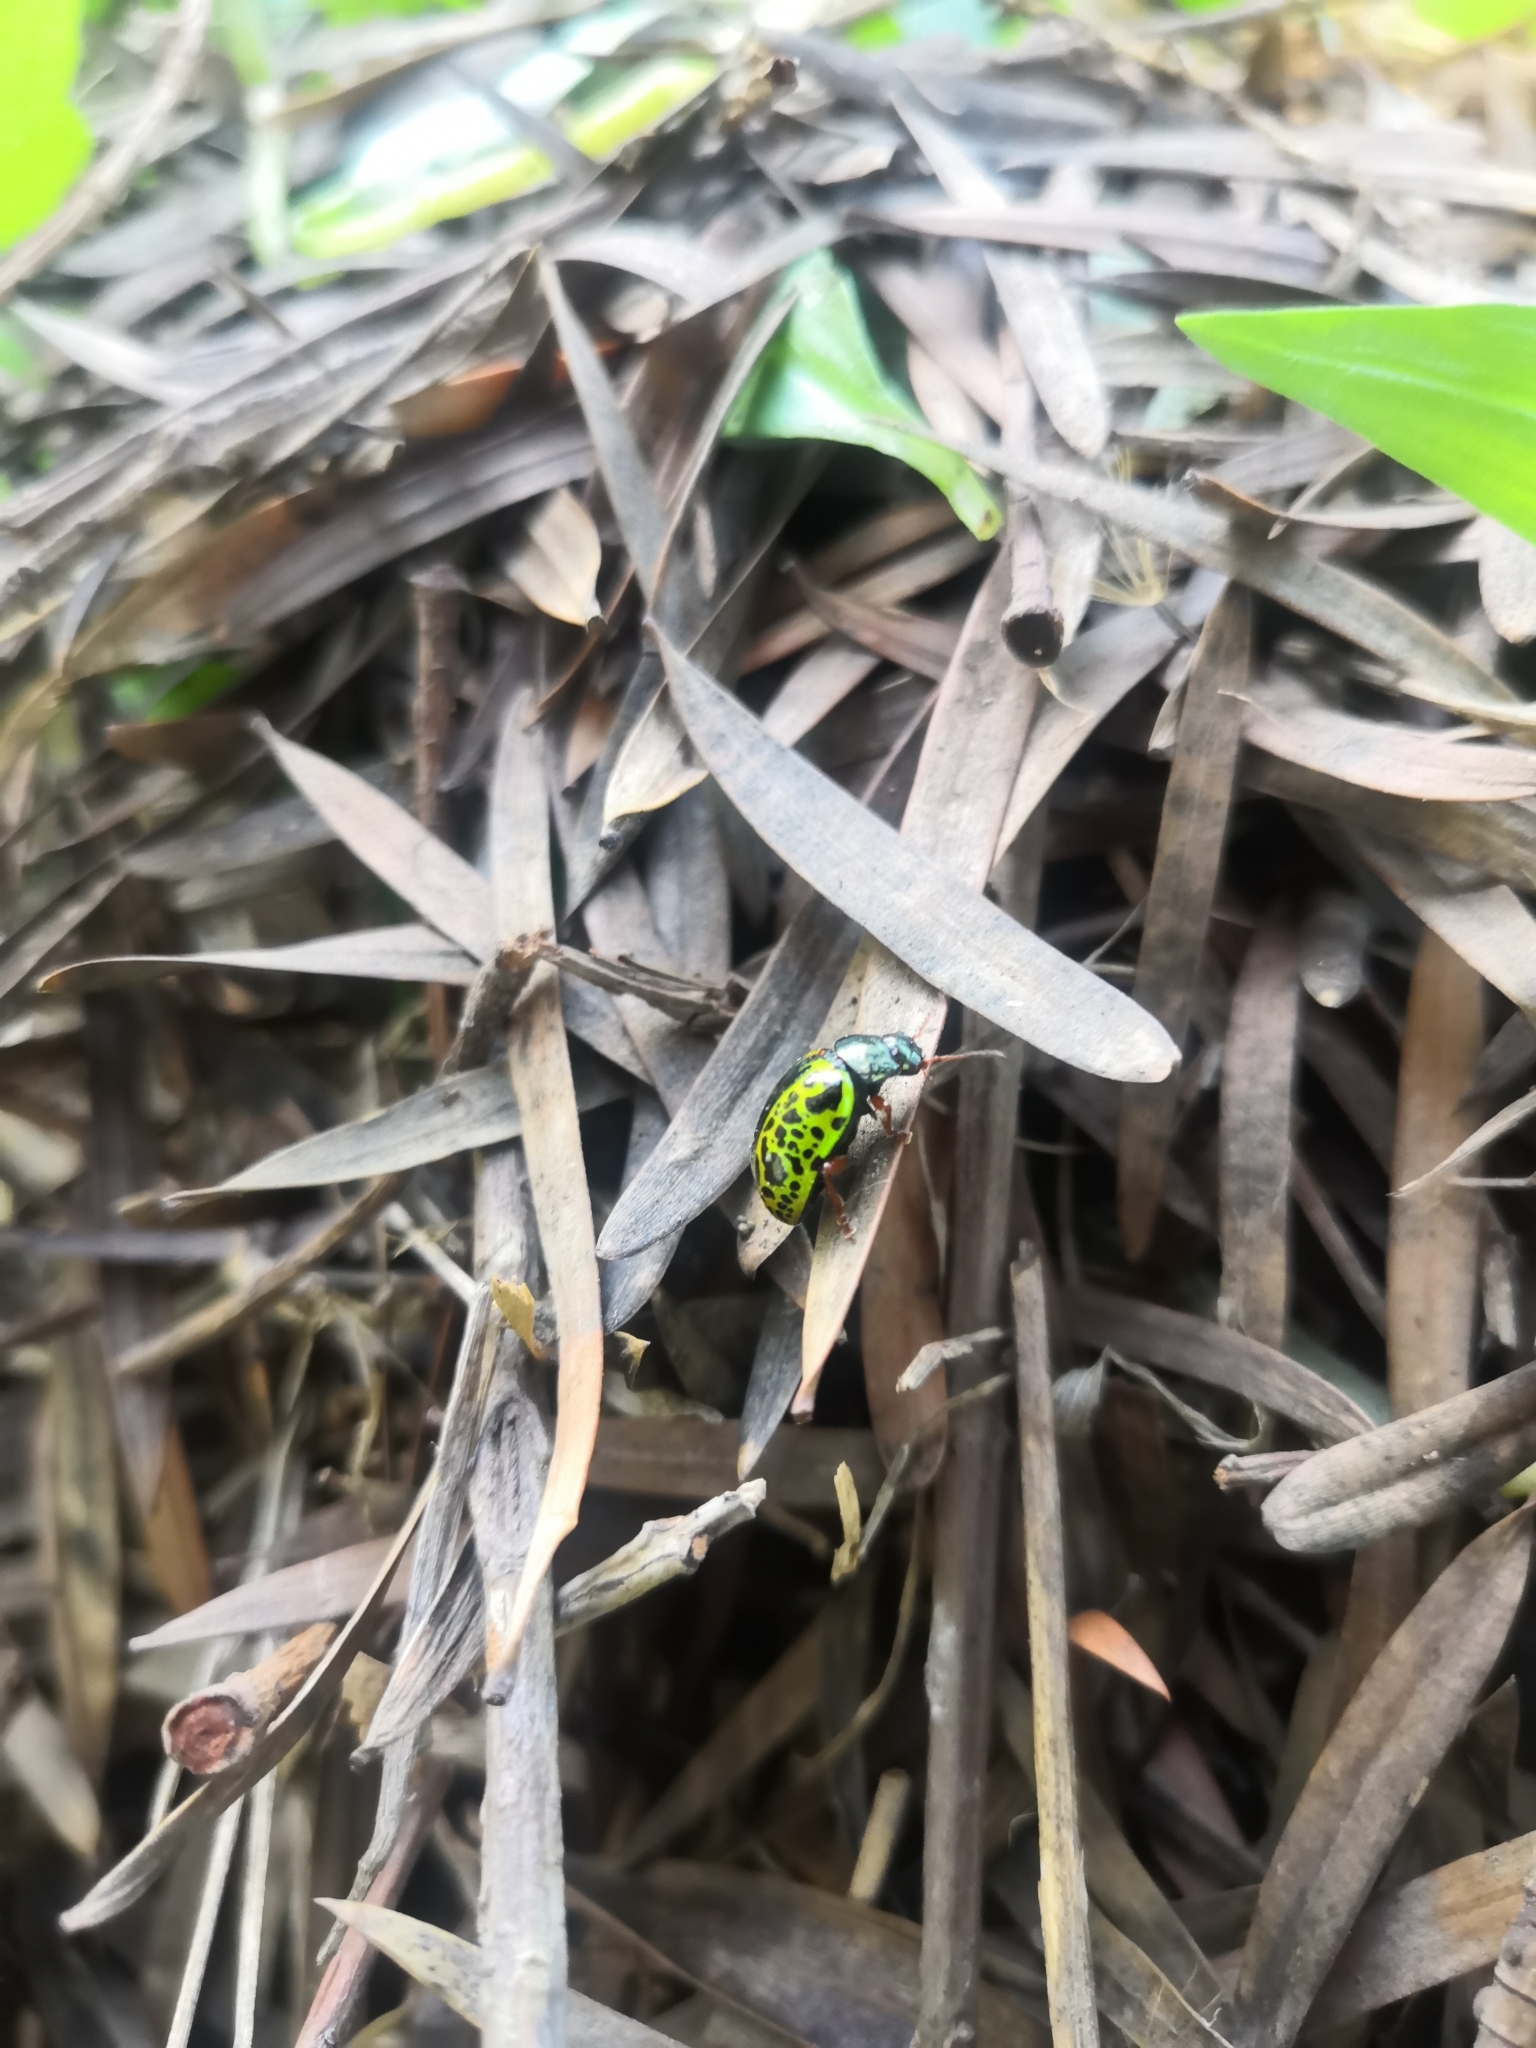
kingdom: Animalia
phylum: Arthropoda
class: Insecta
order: Coleoptera
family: Chrysomelidae
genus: Calligrapha
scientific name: Calligrapha felina
